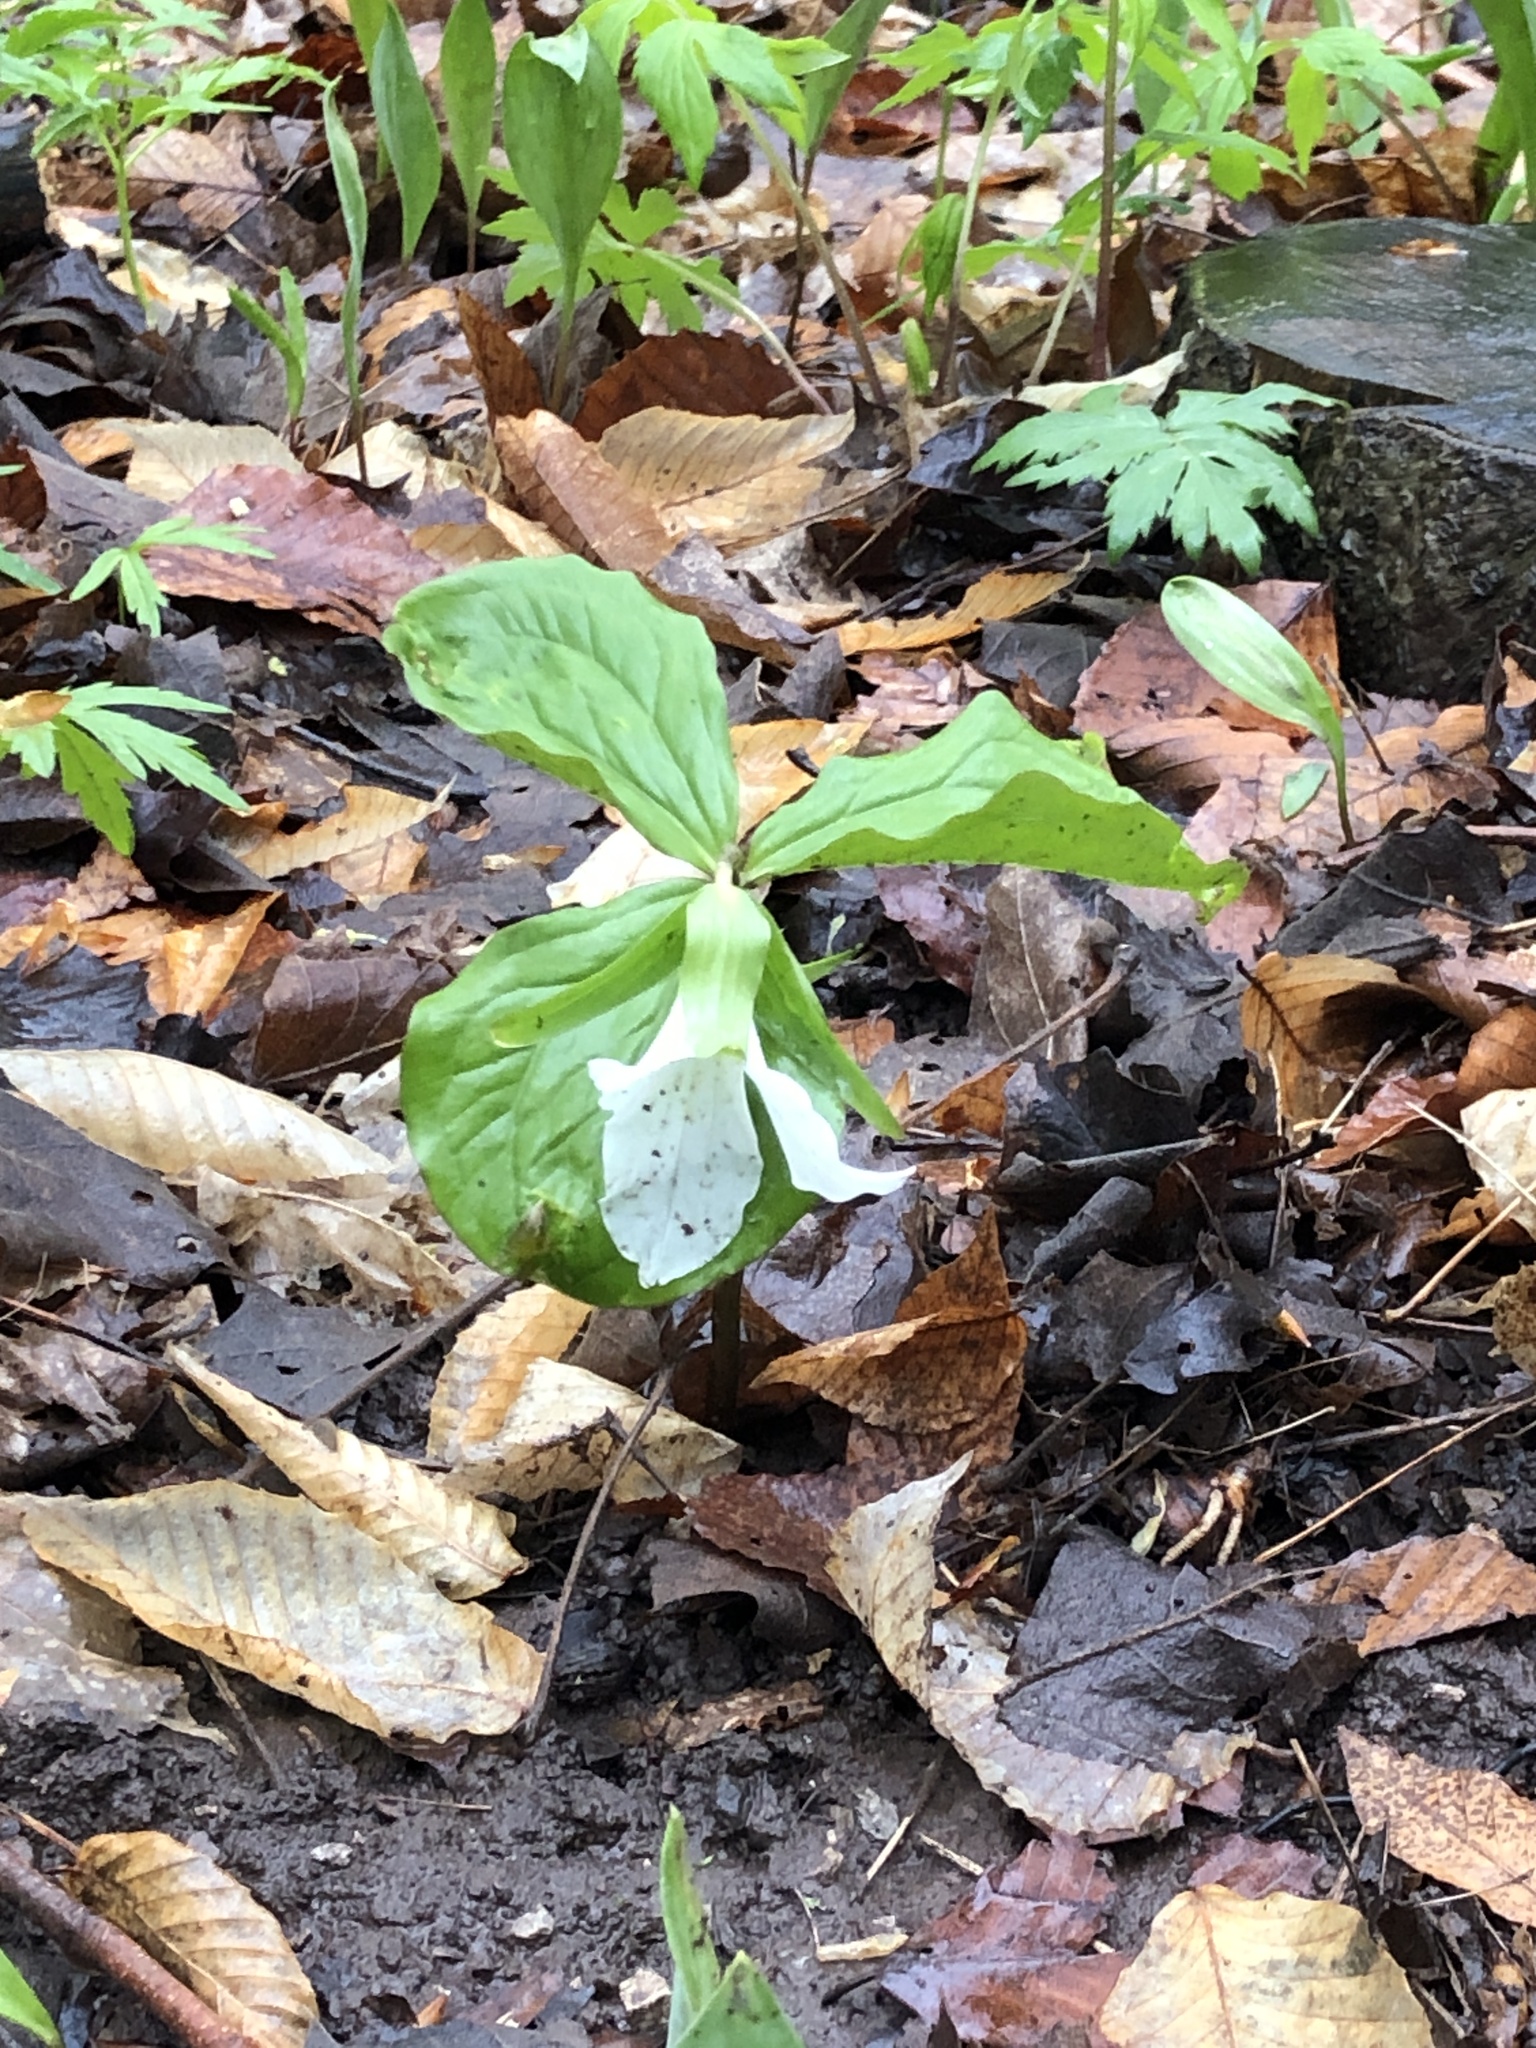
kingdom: Plantae
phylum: Tracheophyta
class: Liliopsida
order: Liliales
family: Melanthiaceae
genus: Trillium
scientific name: Trillium grandiflorum
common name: Great white trillium
